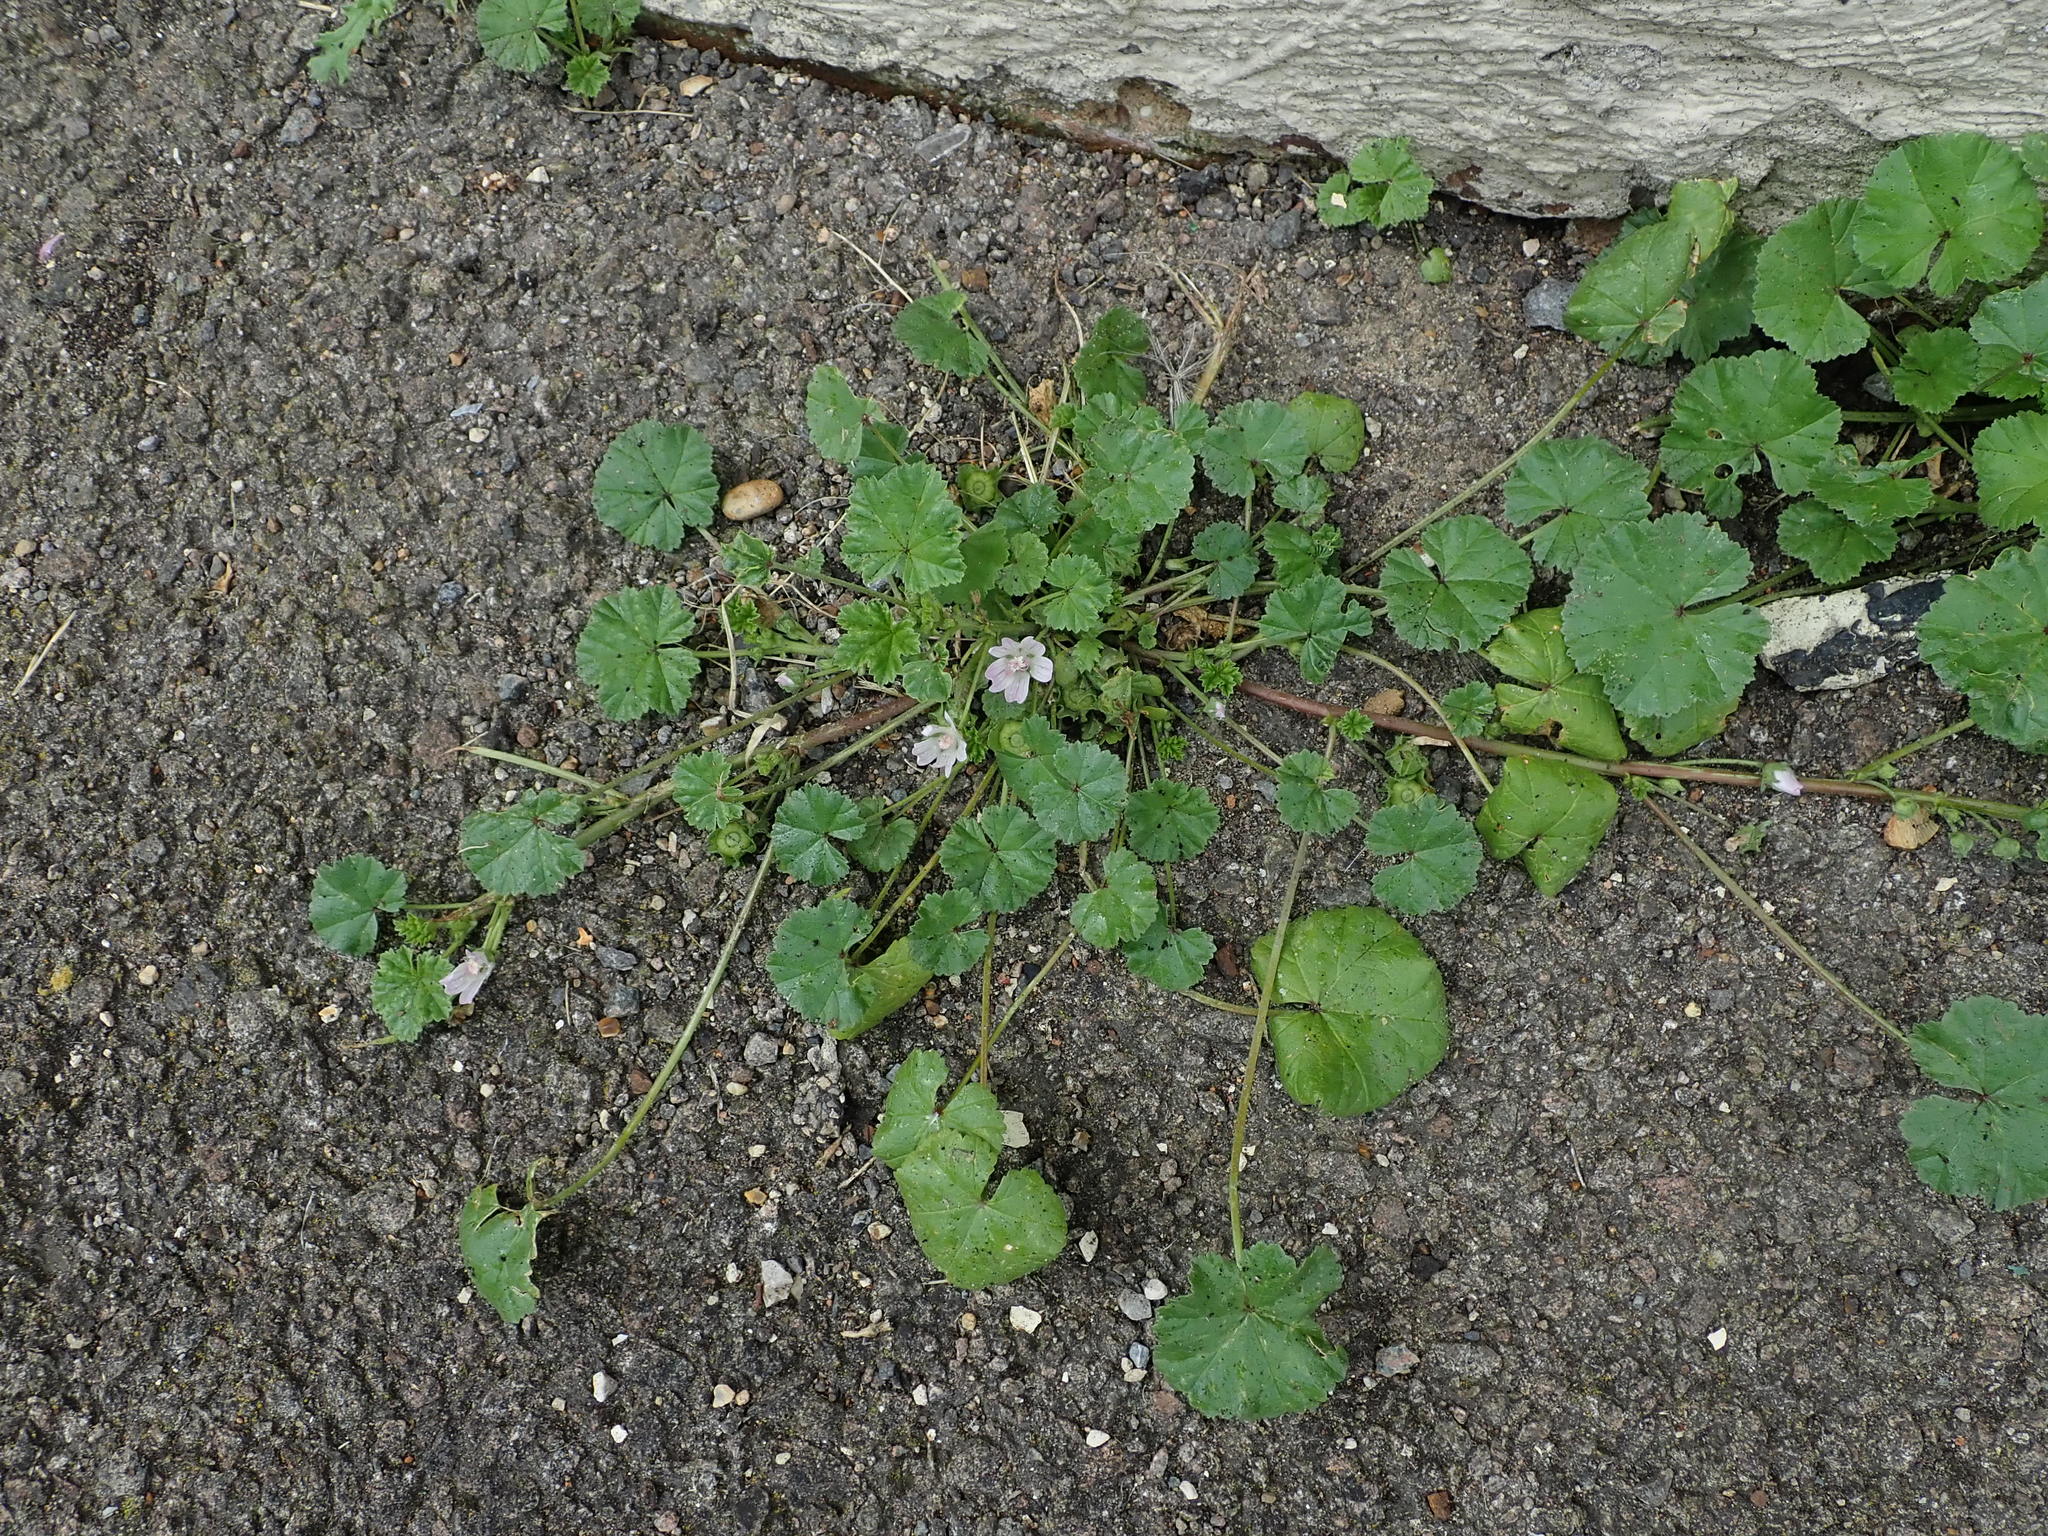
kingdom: Plantae
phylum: Tracheophyta
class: Magnoliopsida
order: Malvales
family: Malvaceae
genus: Malva
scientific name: Malva neglecta
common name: Common mallow
